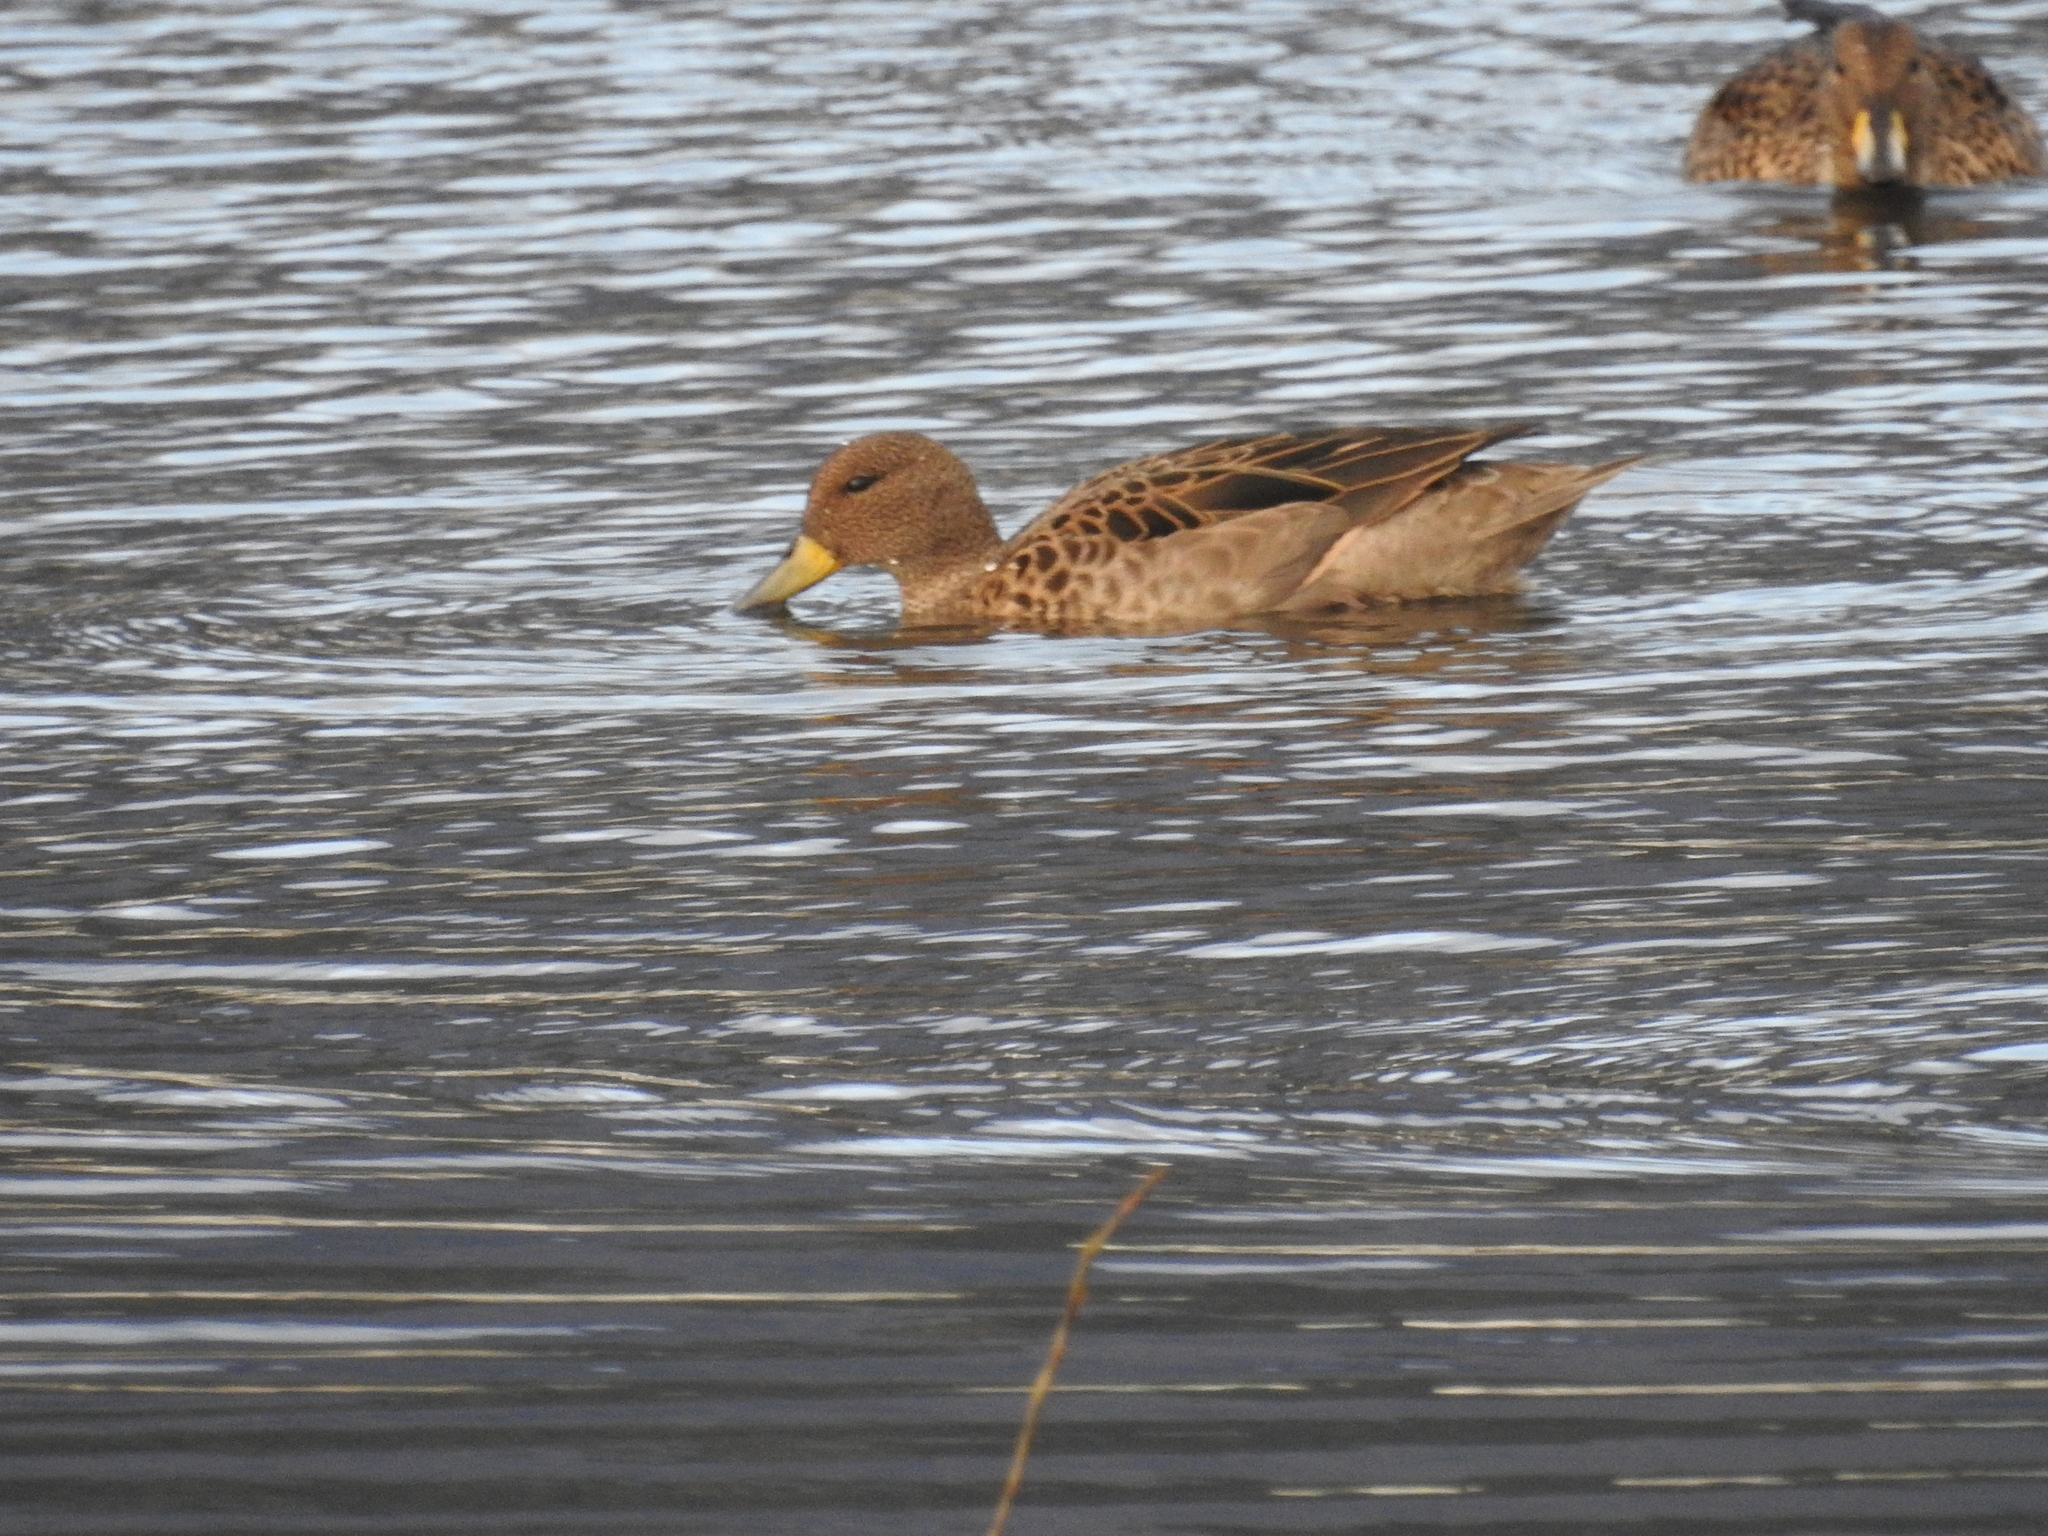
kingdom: Animalia
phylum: Chordata
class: Aves
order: Anseriformes
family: Anatidae
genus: Anas
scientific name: Anas flavirostris
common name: Yellow-billed teal
